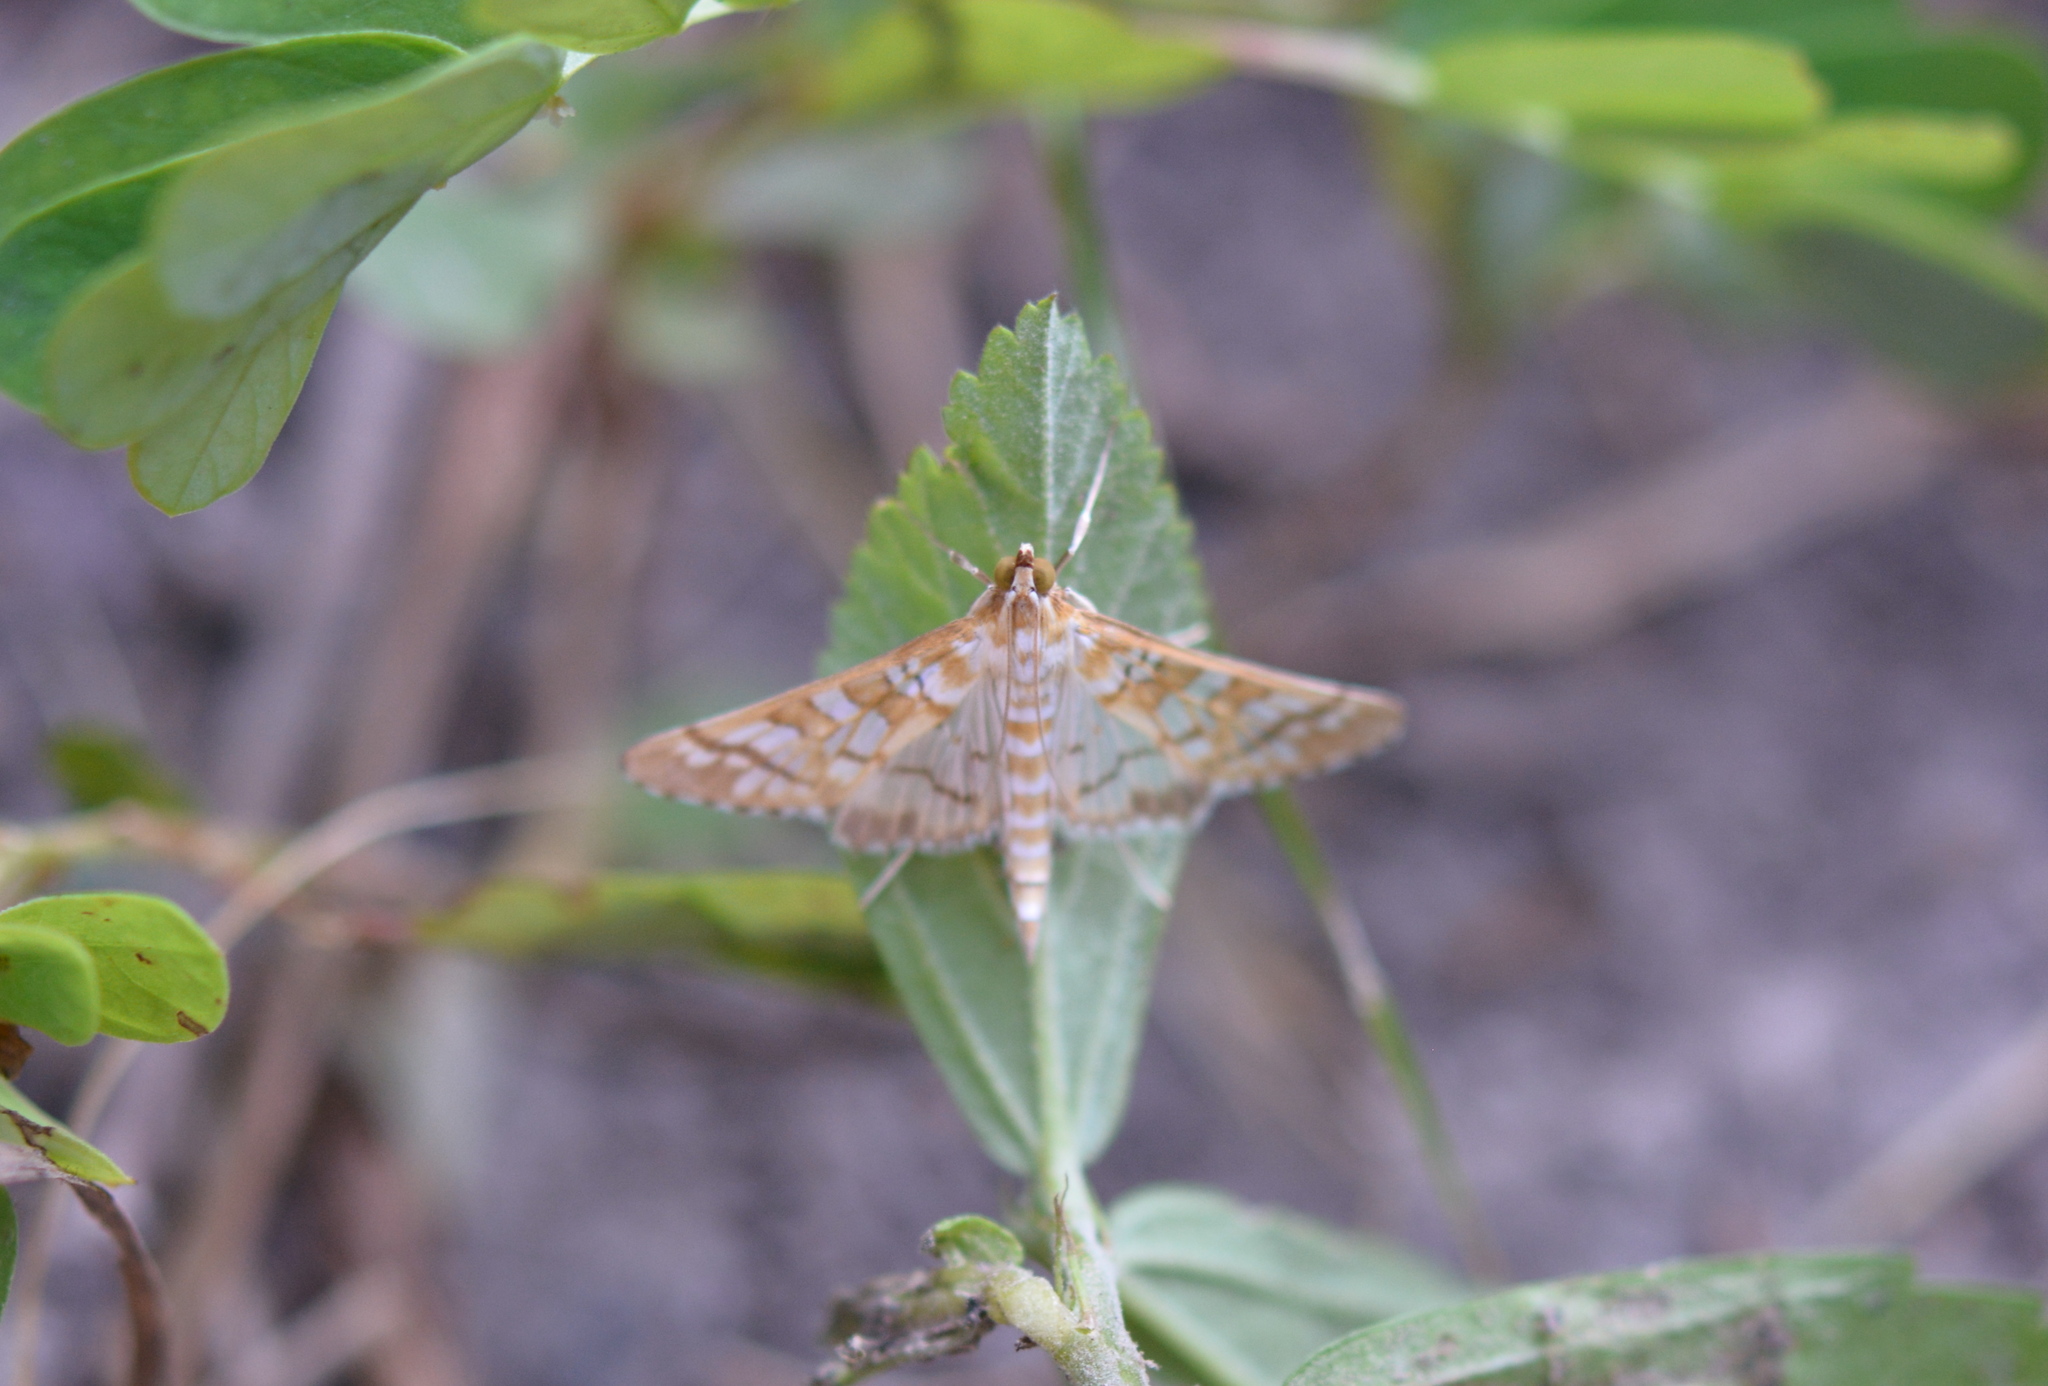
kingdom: Animalia
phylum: Arthropoda
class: Insecta
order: Lepidoptera
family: Crambidae
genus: Epipagis
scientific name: Epipagis fenestralis
